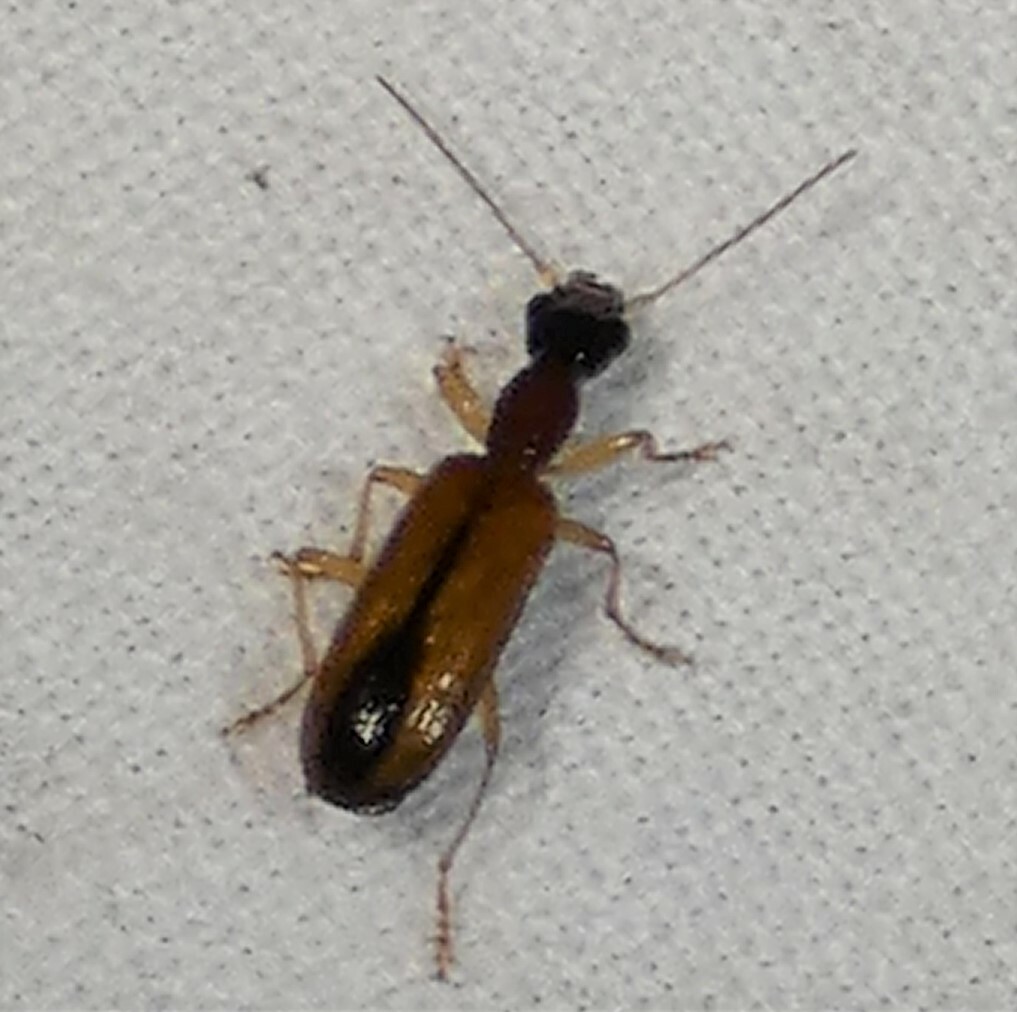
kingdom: Animalia
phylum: Arthropoda
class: Insecta
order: Coleoptera
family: Carabidae
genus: Leptotrachelus
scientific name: Leptotrachelus dorsalis
